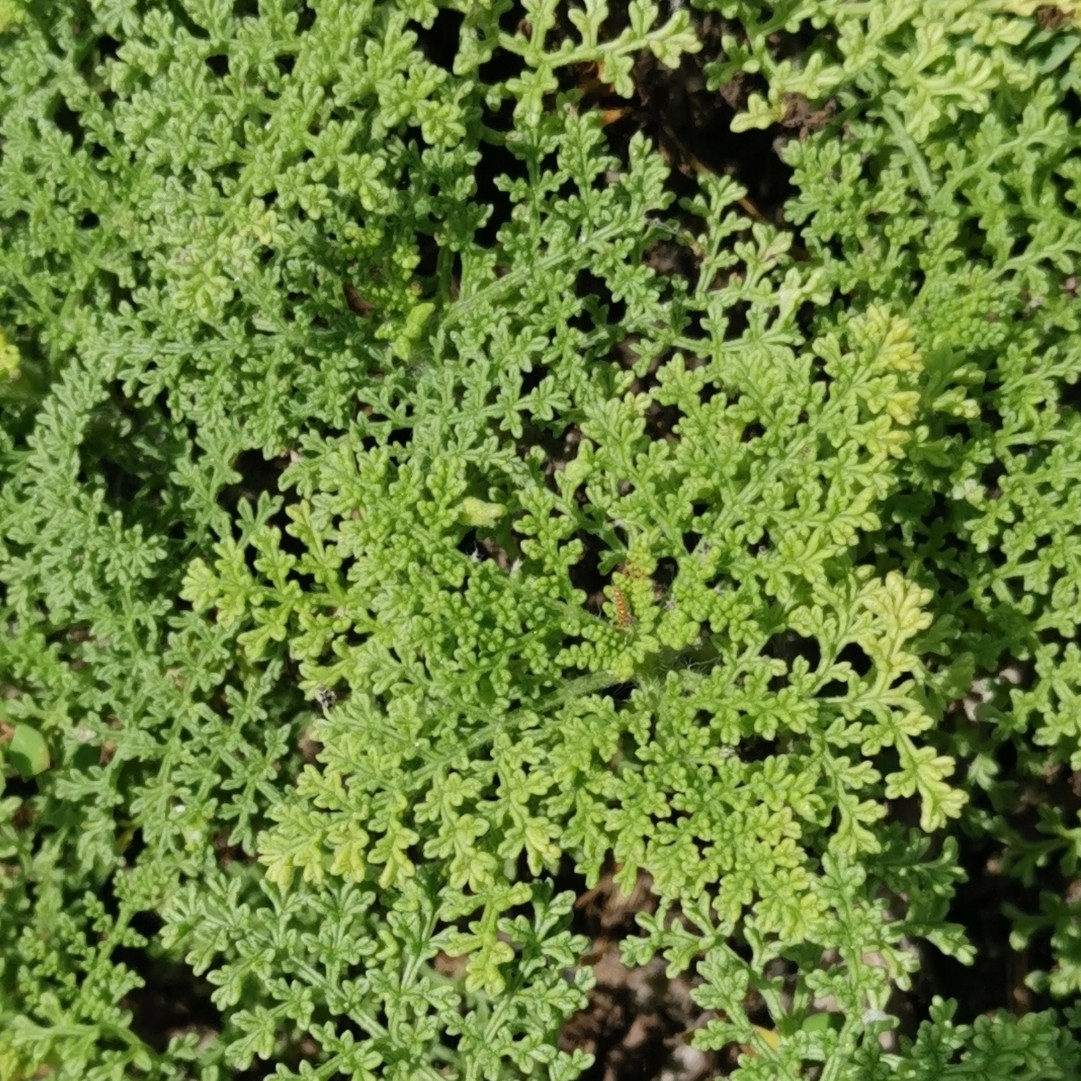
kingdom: Plantae
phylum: Tracheophyta
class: Magnoliopsida
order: Asterales
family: Asteraceae
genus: Ambrosia
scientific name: Ambrosia hispida
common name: Coastal ragweed
